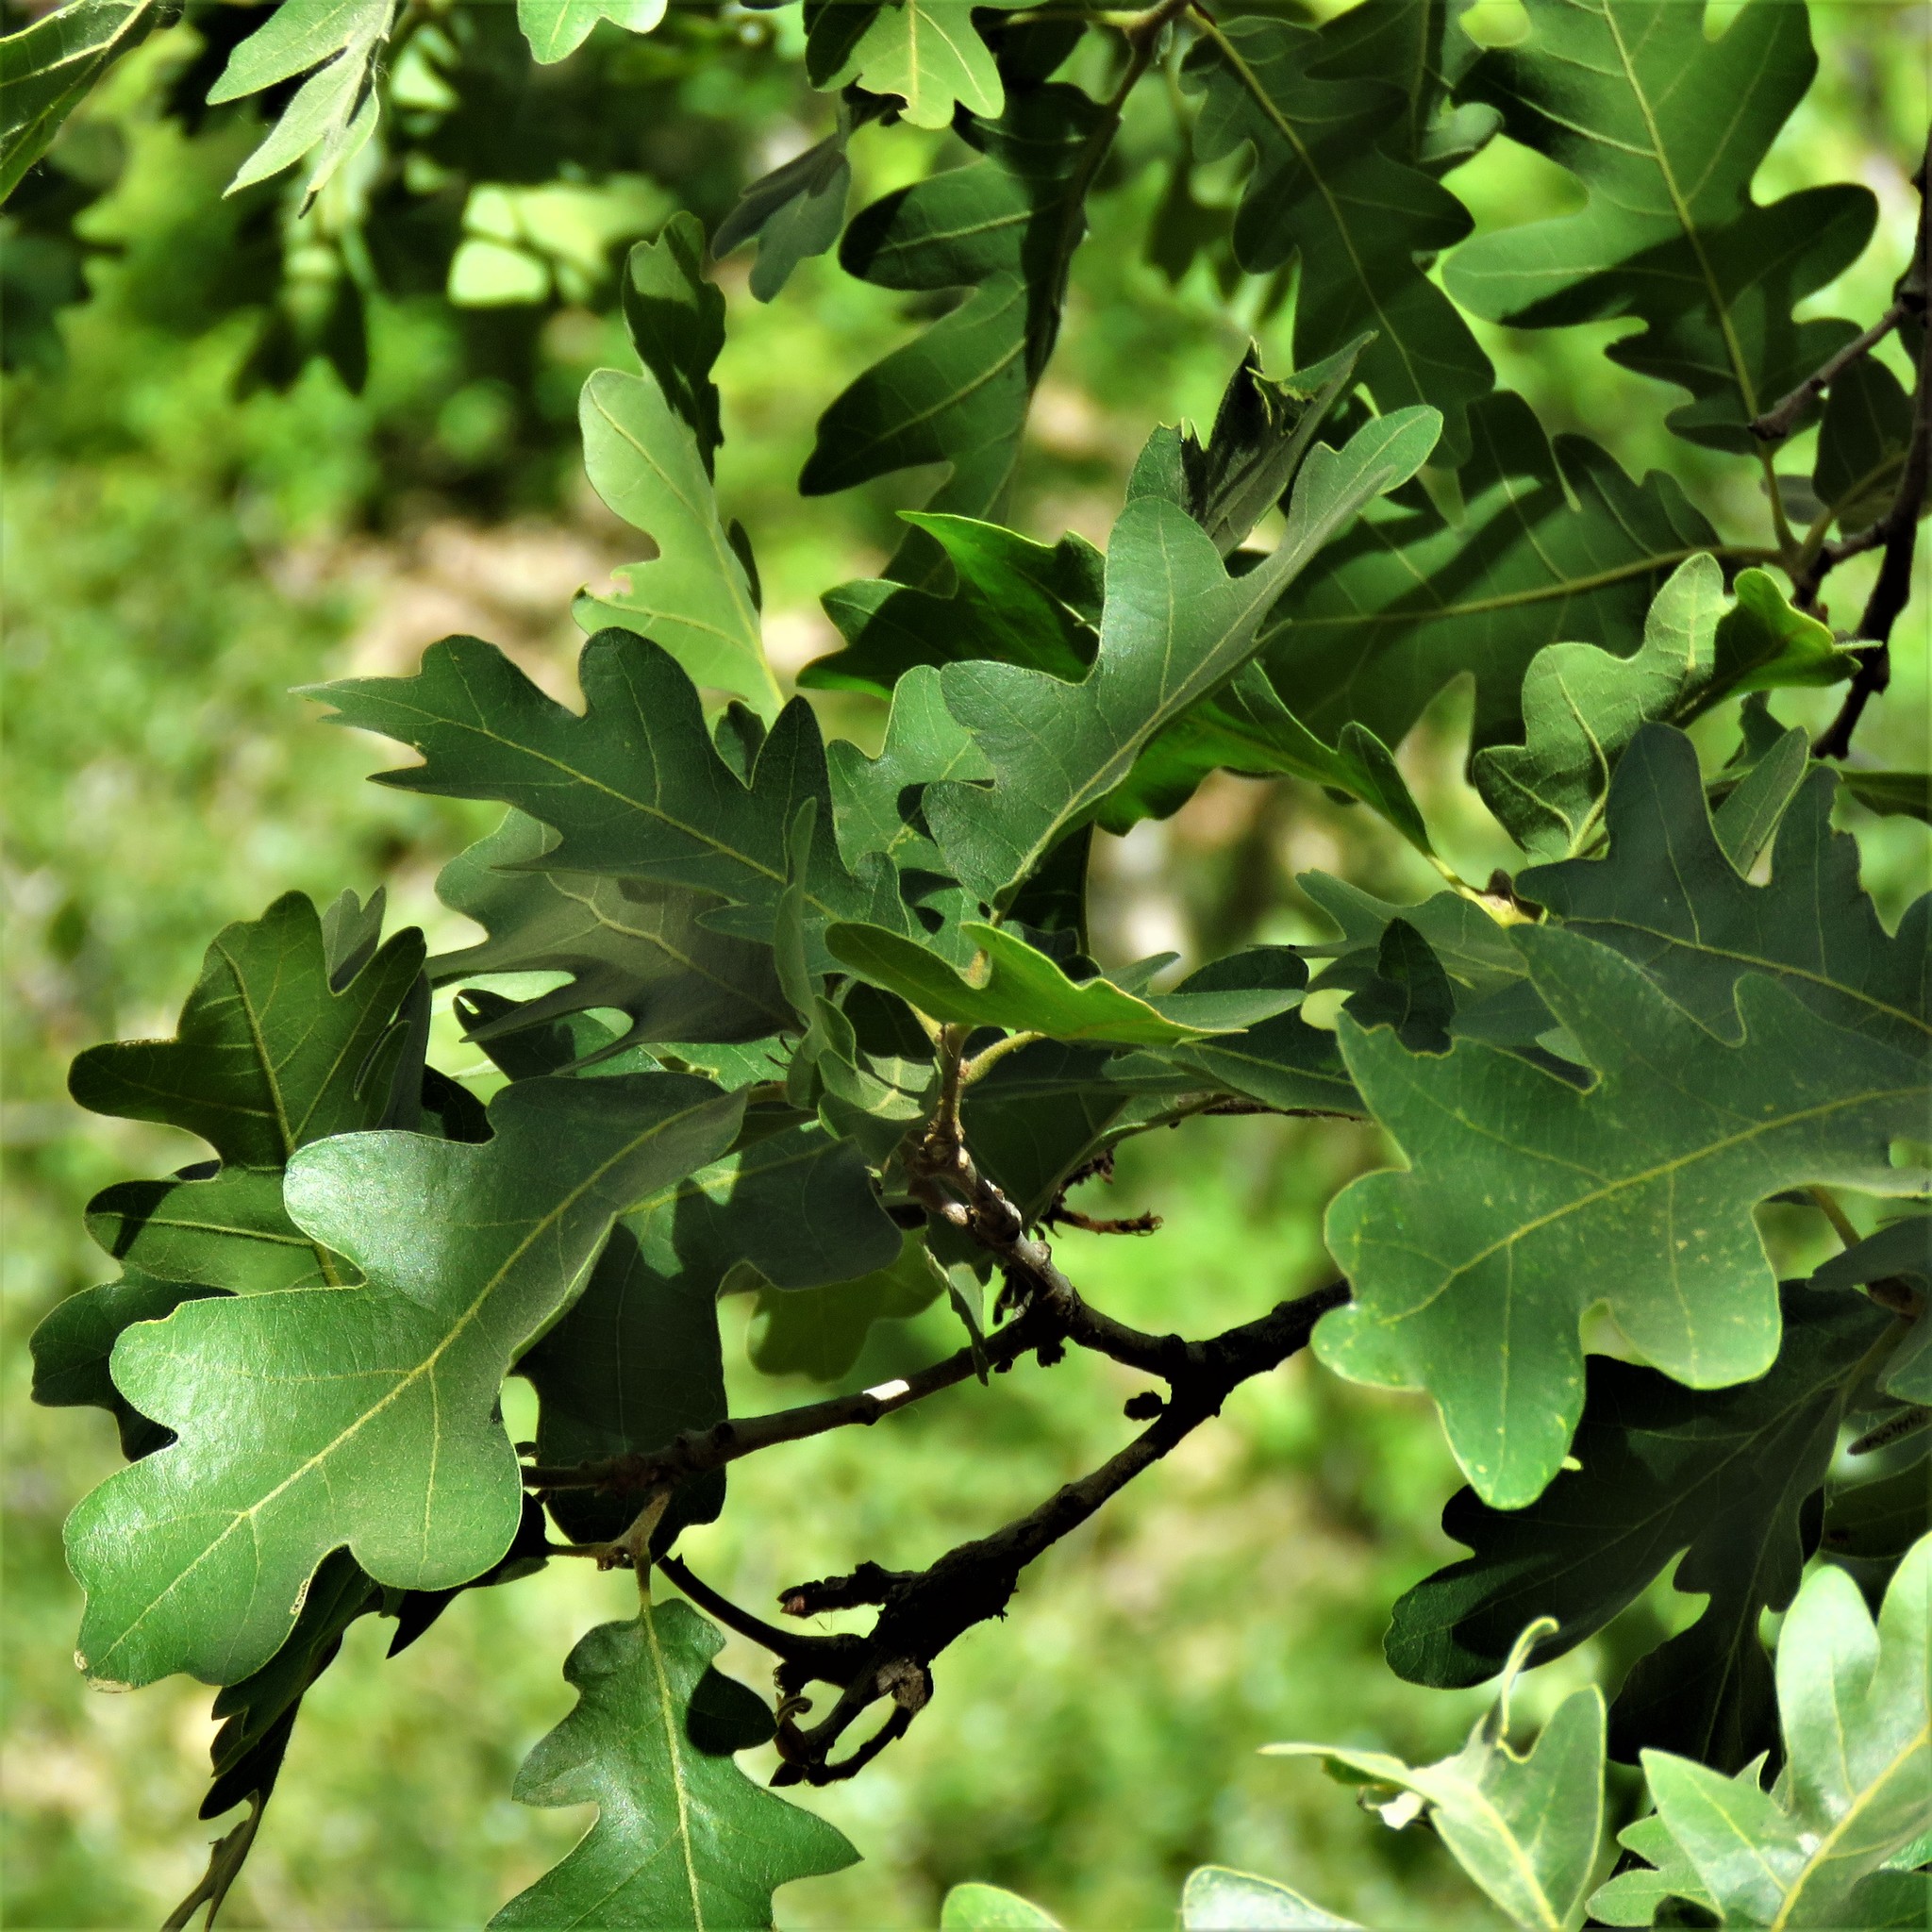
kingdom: Plantae
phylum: Tracheophyta
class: Magnoliopsida
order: Fagales
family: Fagaceae
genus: Quercus
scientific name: Quercus gambelii
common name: Gambel oak
